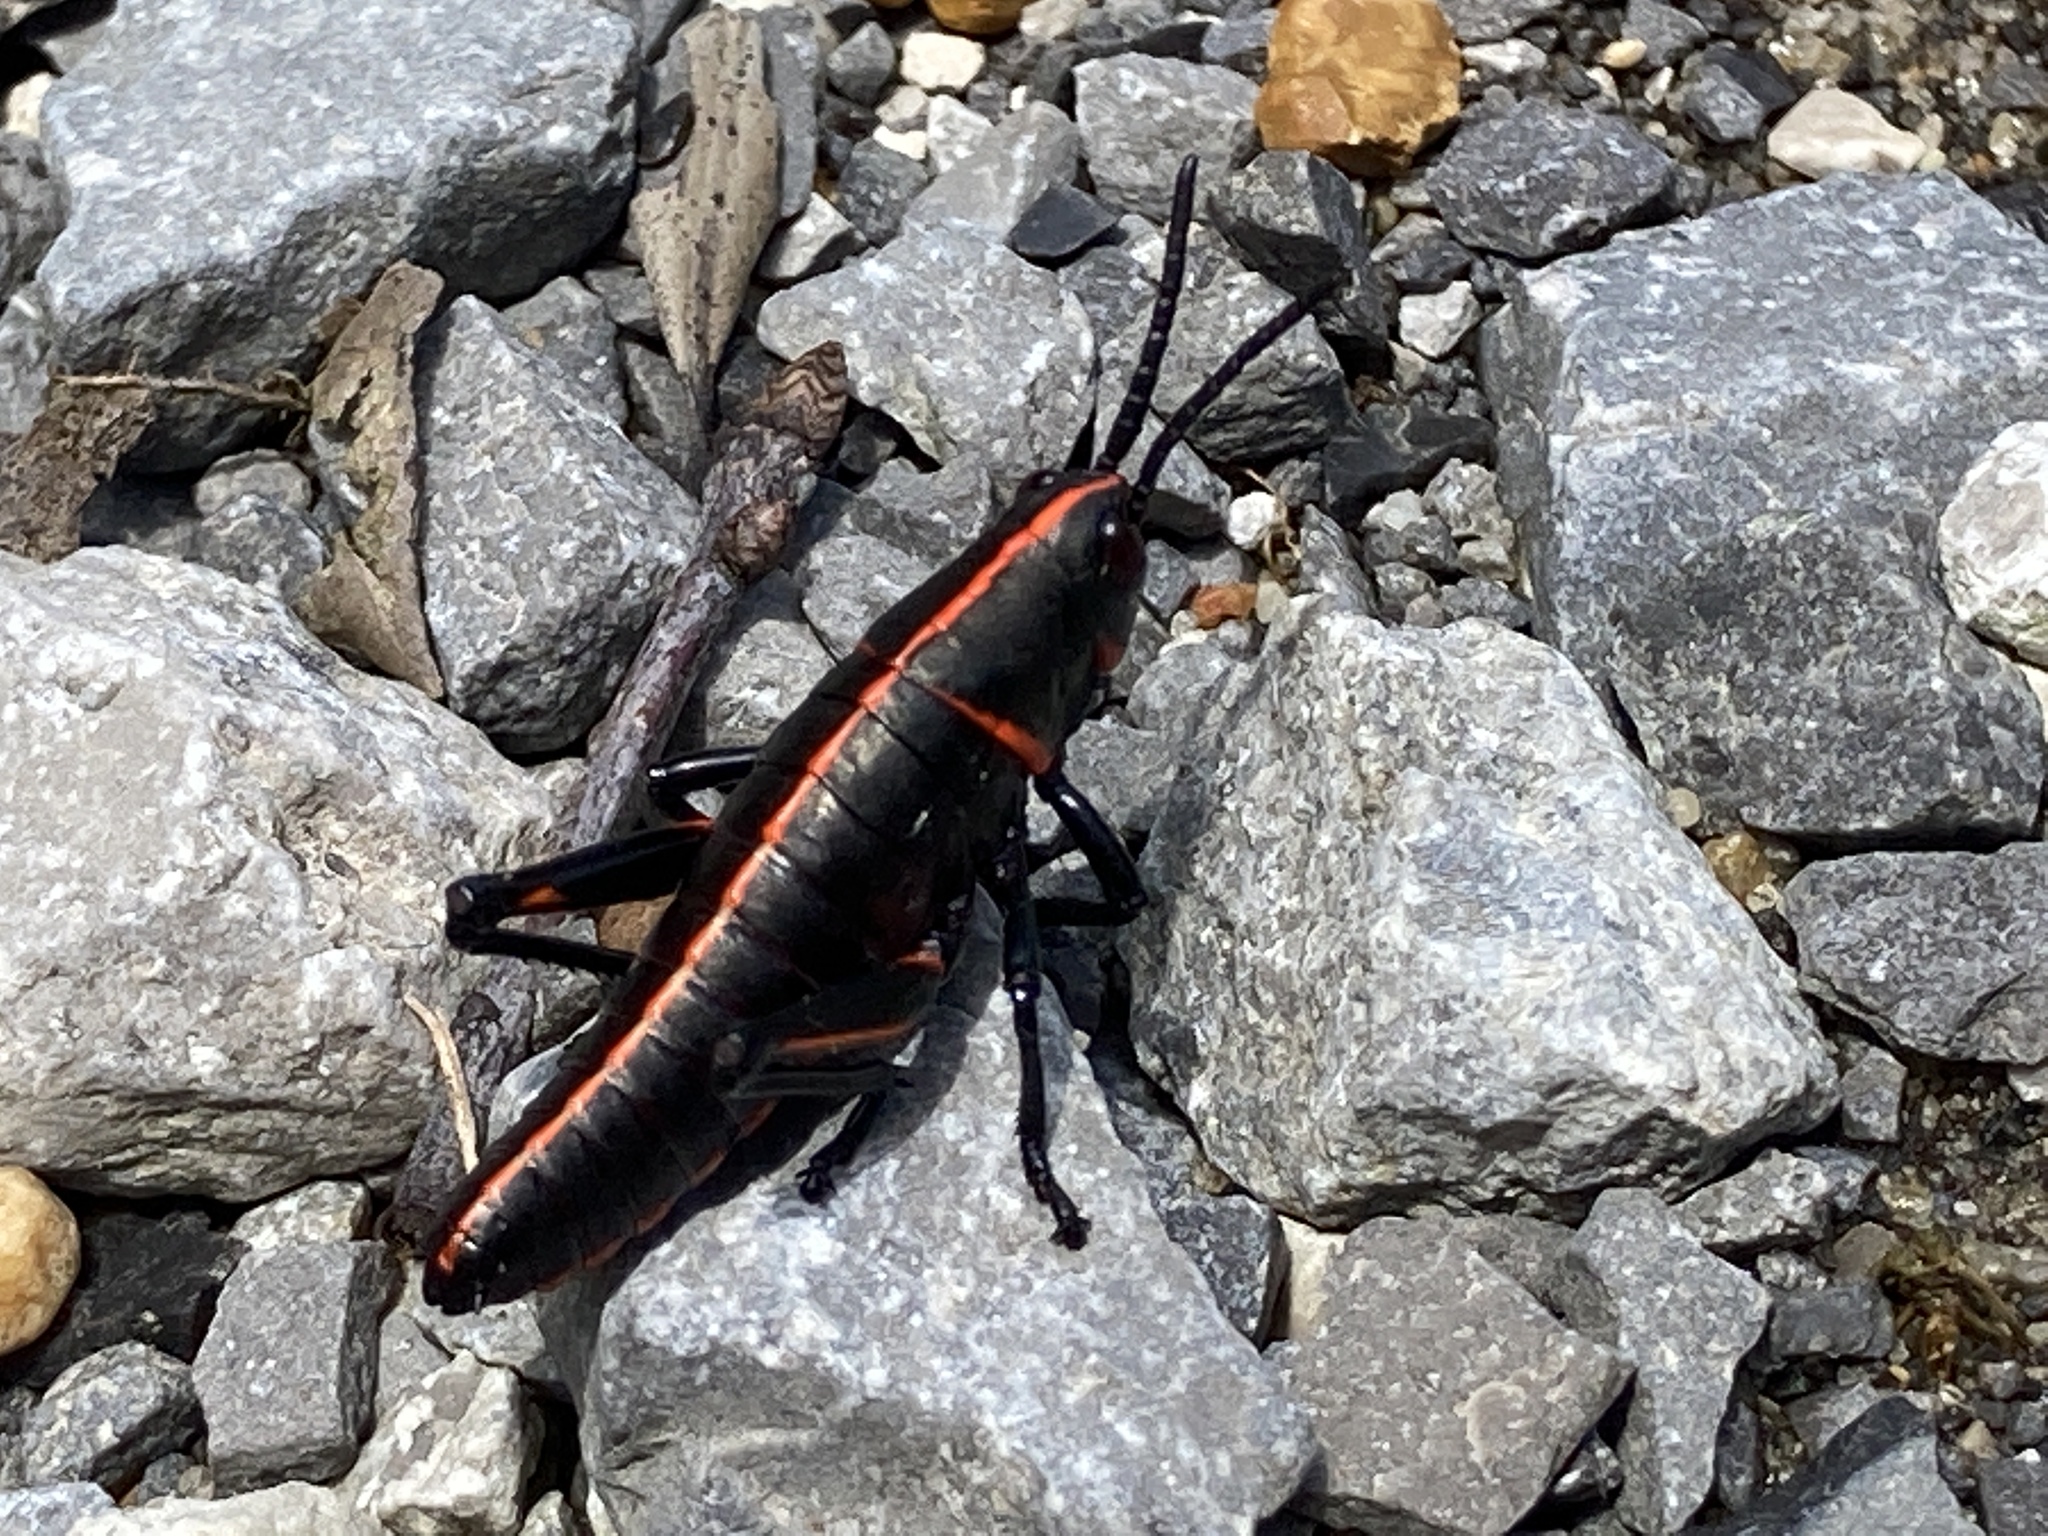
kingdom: Animalia
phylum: Arthropoda
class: Insecta
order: Orthoptera
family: Romaleidae
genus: Romalea
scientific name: Romalea microptera
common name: Eastern lubber grasshopper
